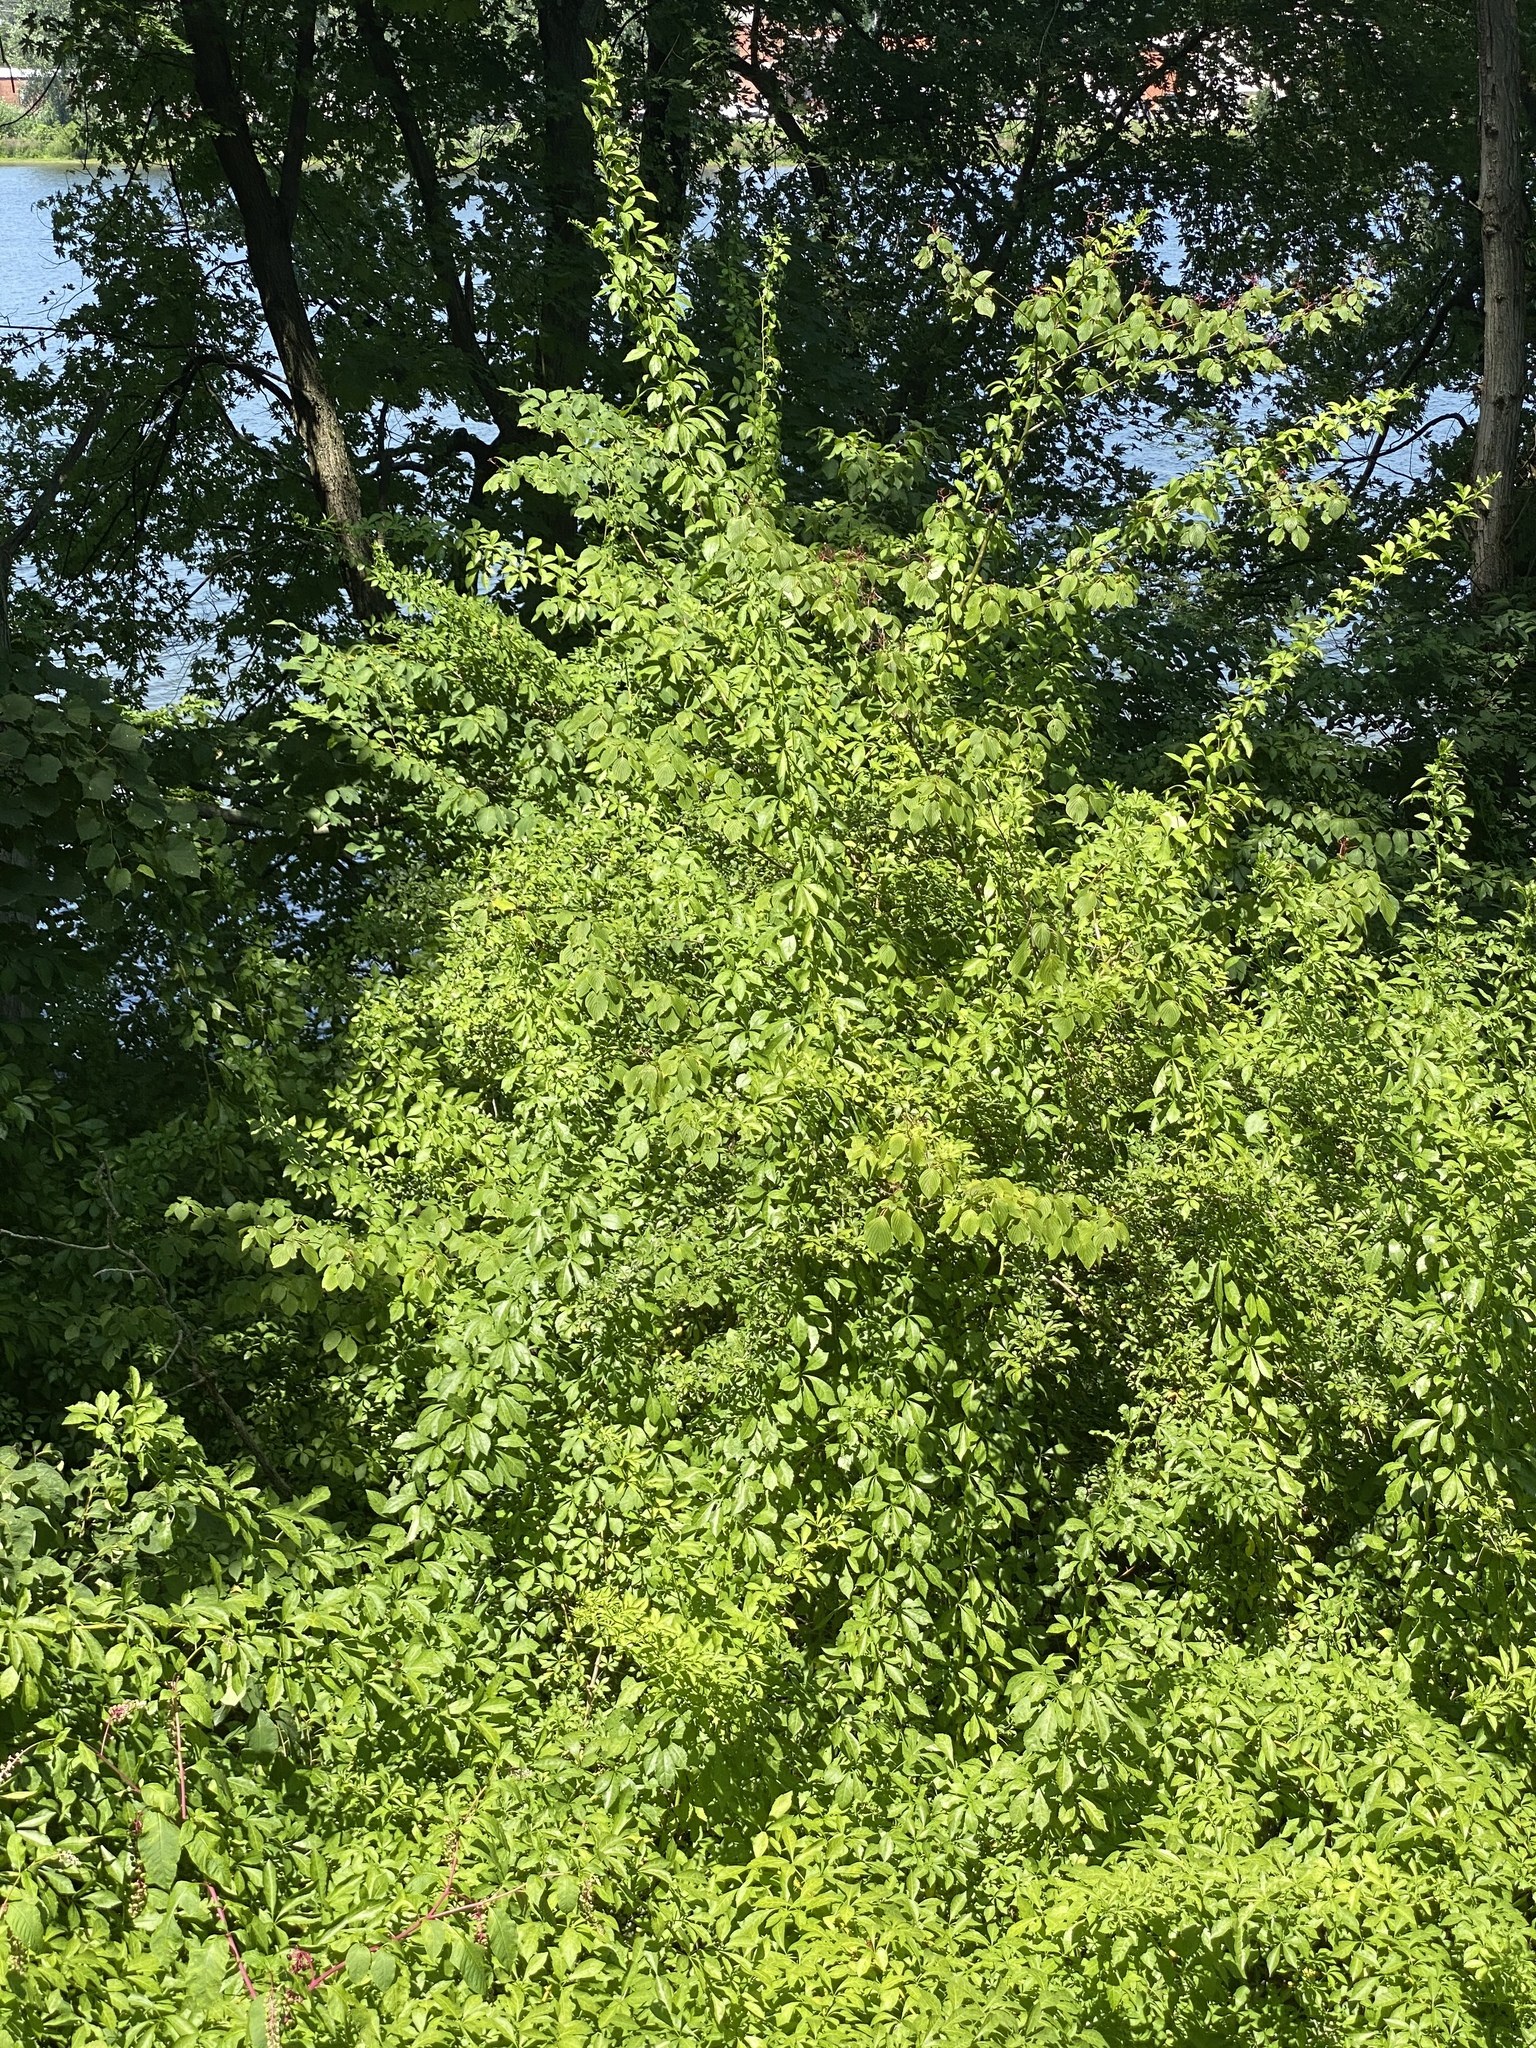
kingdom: Plantae
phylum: Tracheophyta
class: Magnoliopsida
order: Apiales
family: Araliaceae
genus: Eleutherococcus
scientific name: Eleutherococcus sieboldianus
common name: Ginseng
